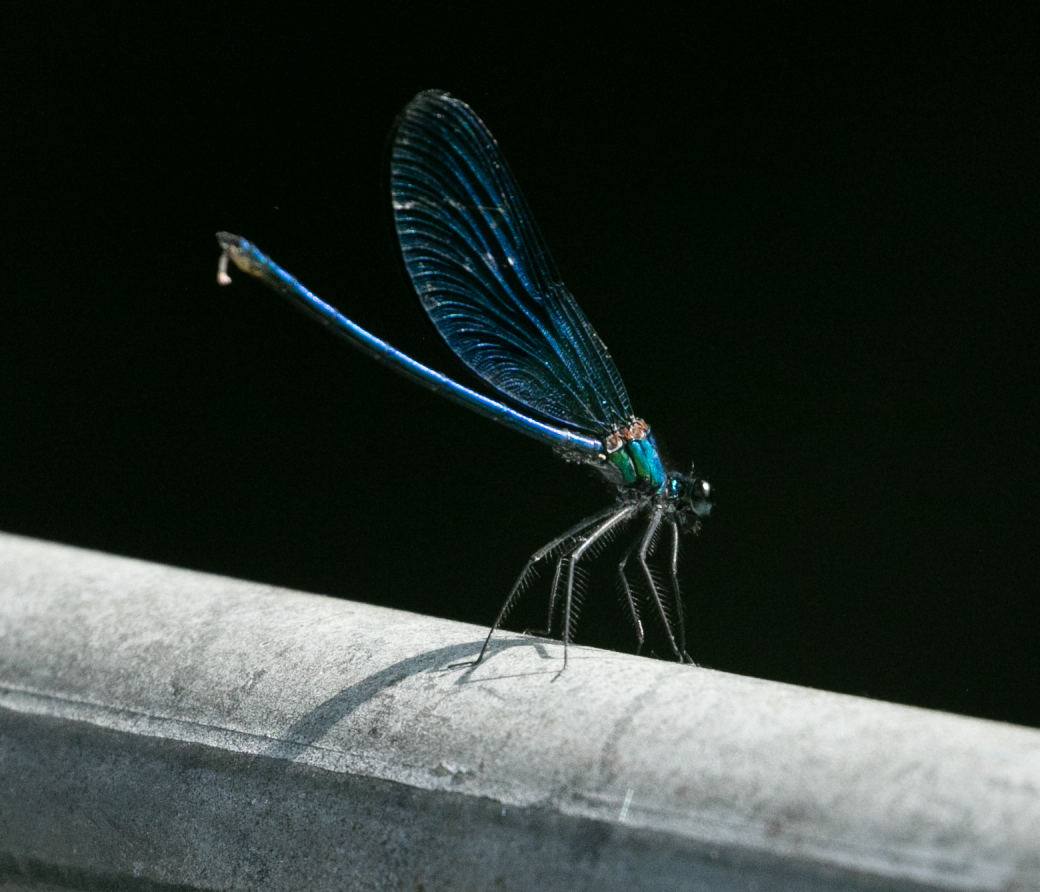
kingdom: Animalia
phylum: Arthropoda
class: Insecta
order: Odonata
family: Calopterygidae
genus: Calopteryx
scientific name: Calopteryx splendens
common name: Banded demoiselle
